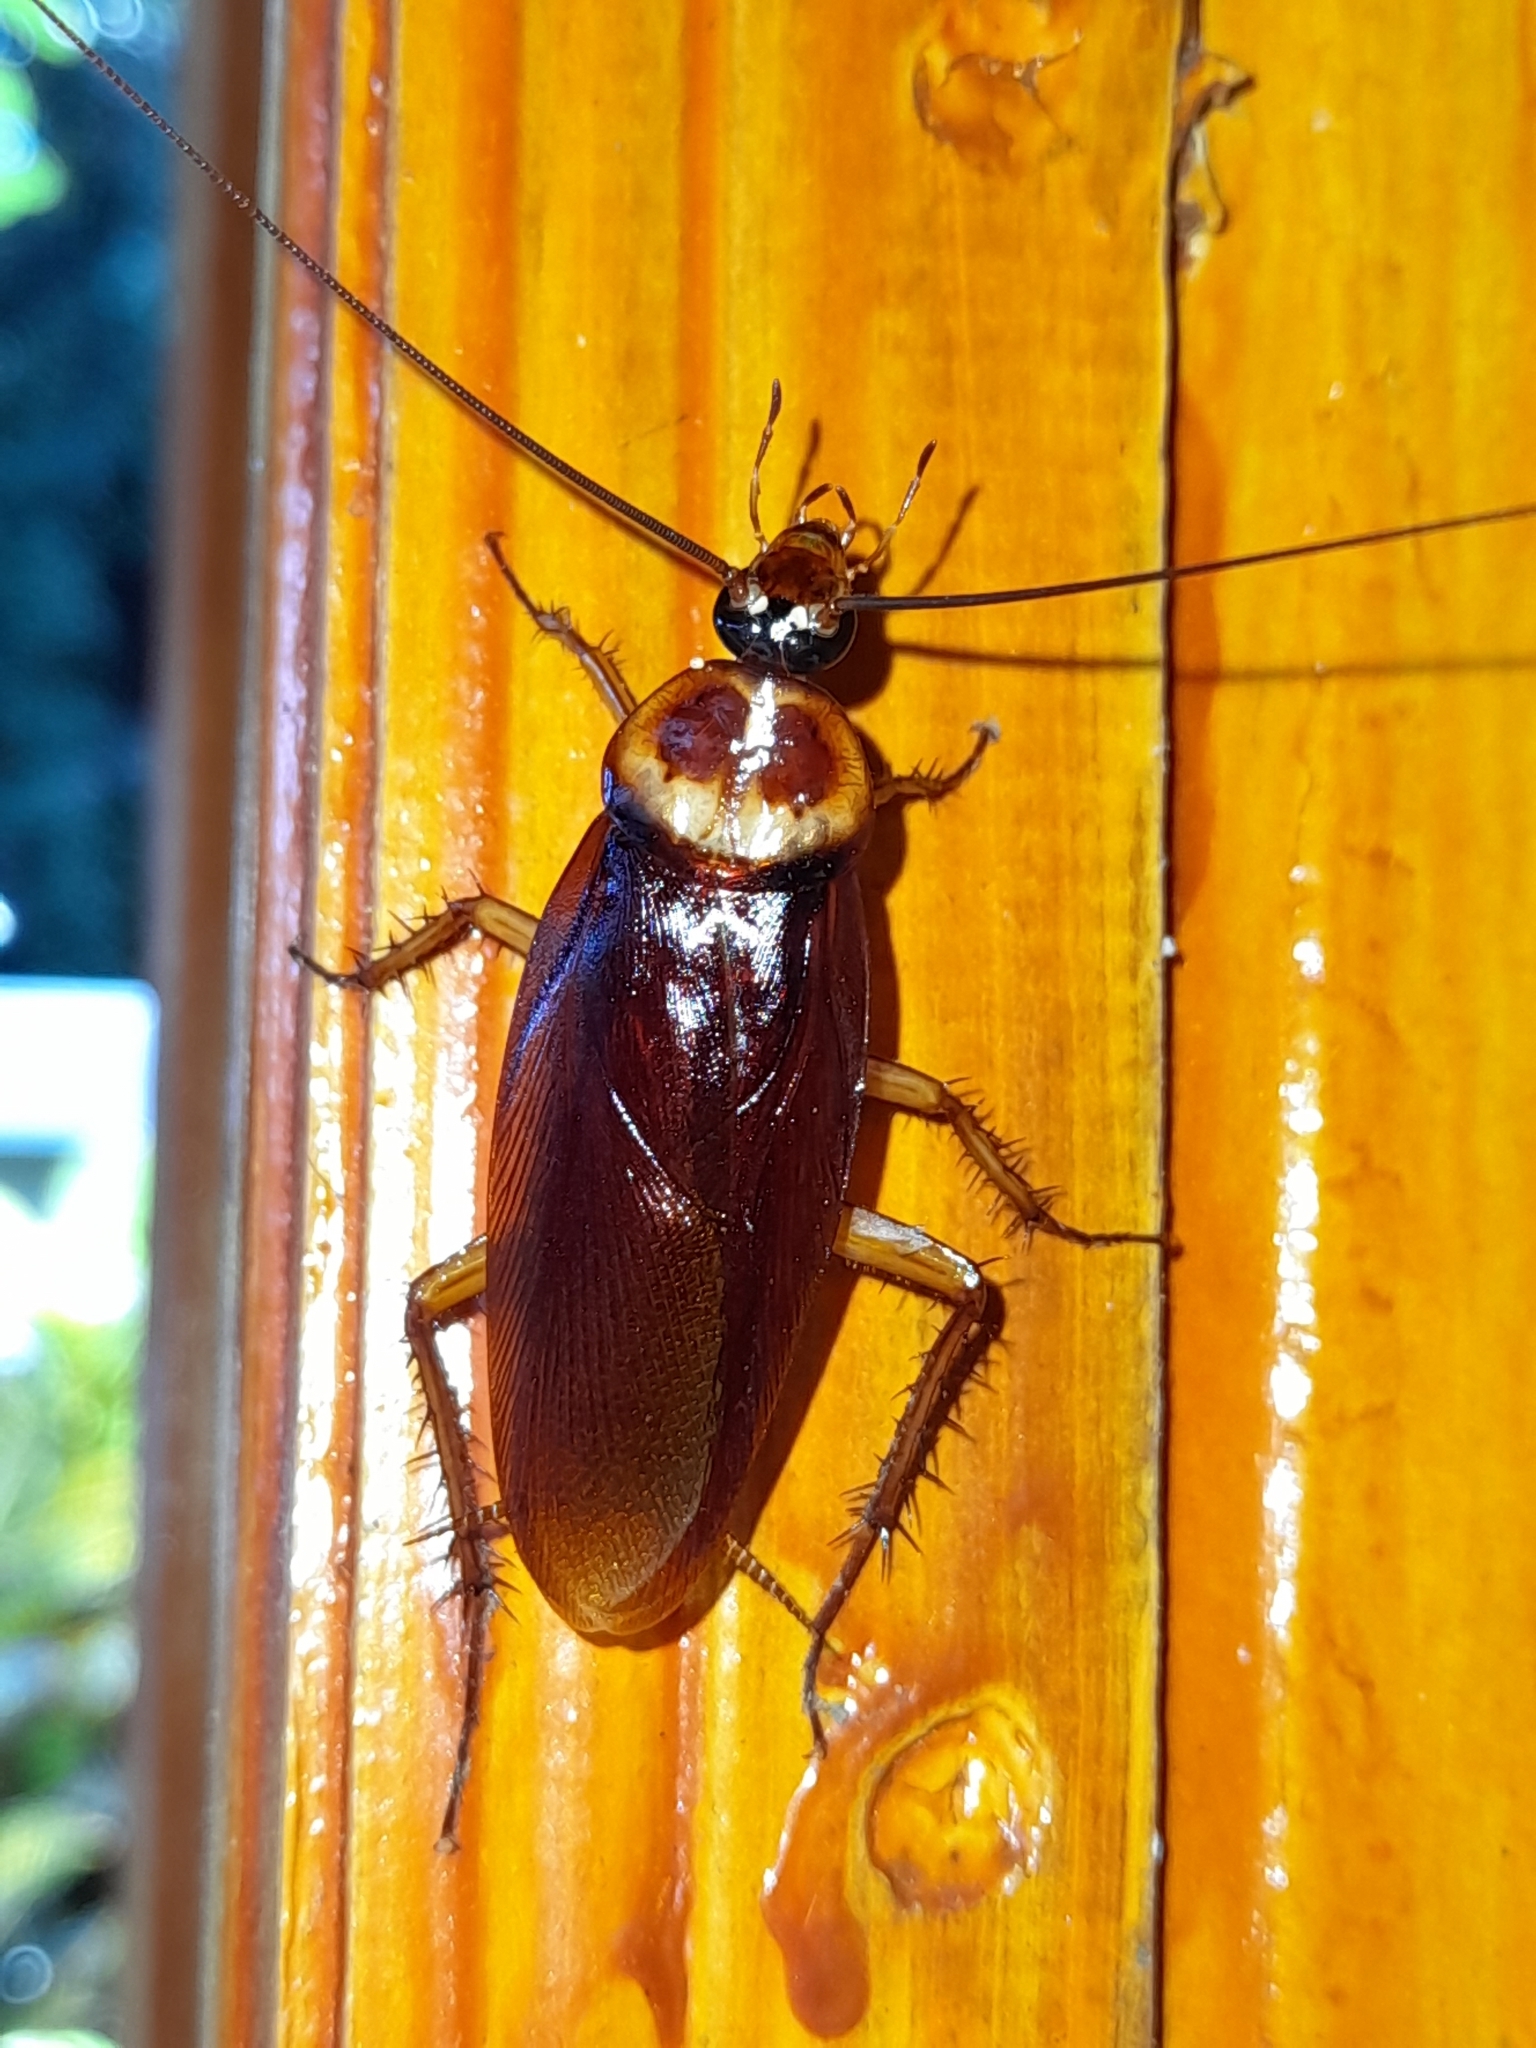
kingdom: Animalia
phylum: Arthropoda
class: Insecta
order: Blattodea
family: Blattidae
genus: Periplaneta
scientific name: Periplaneta americana
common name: American cockroach
